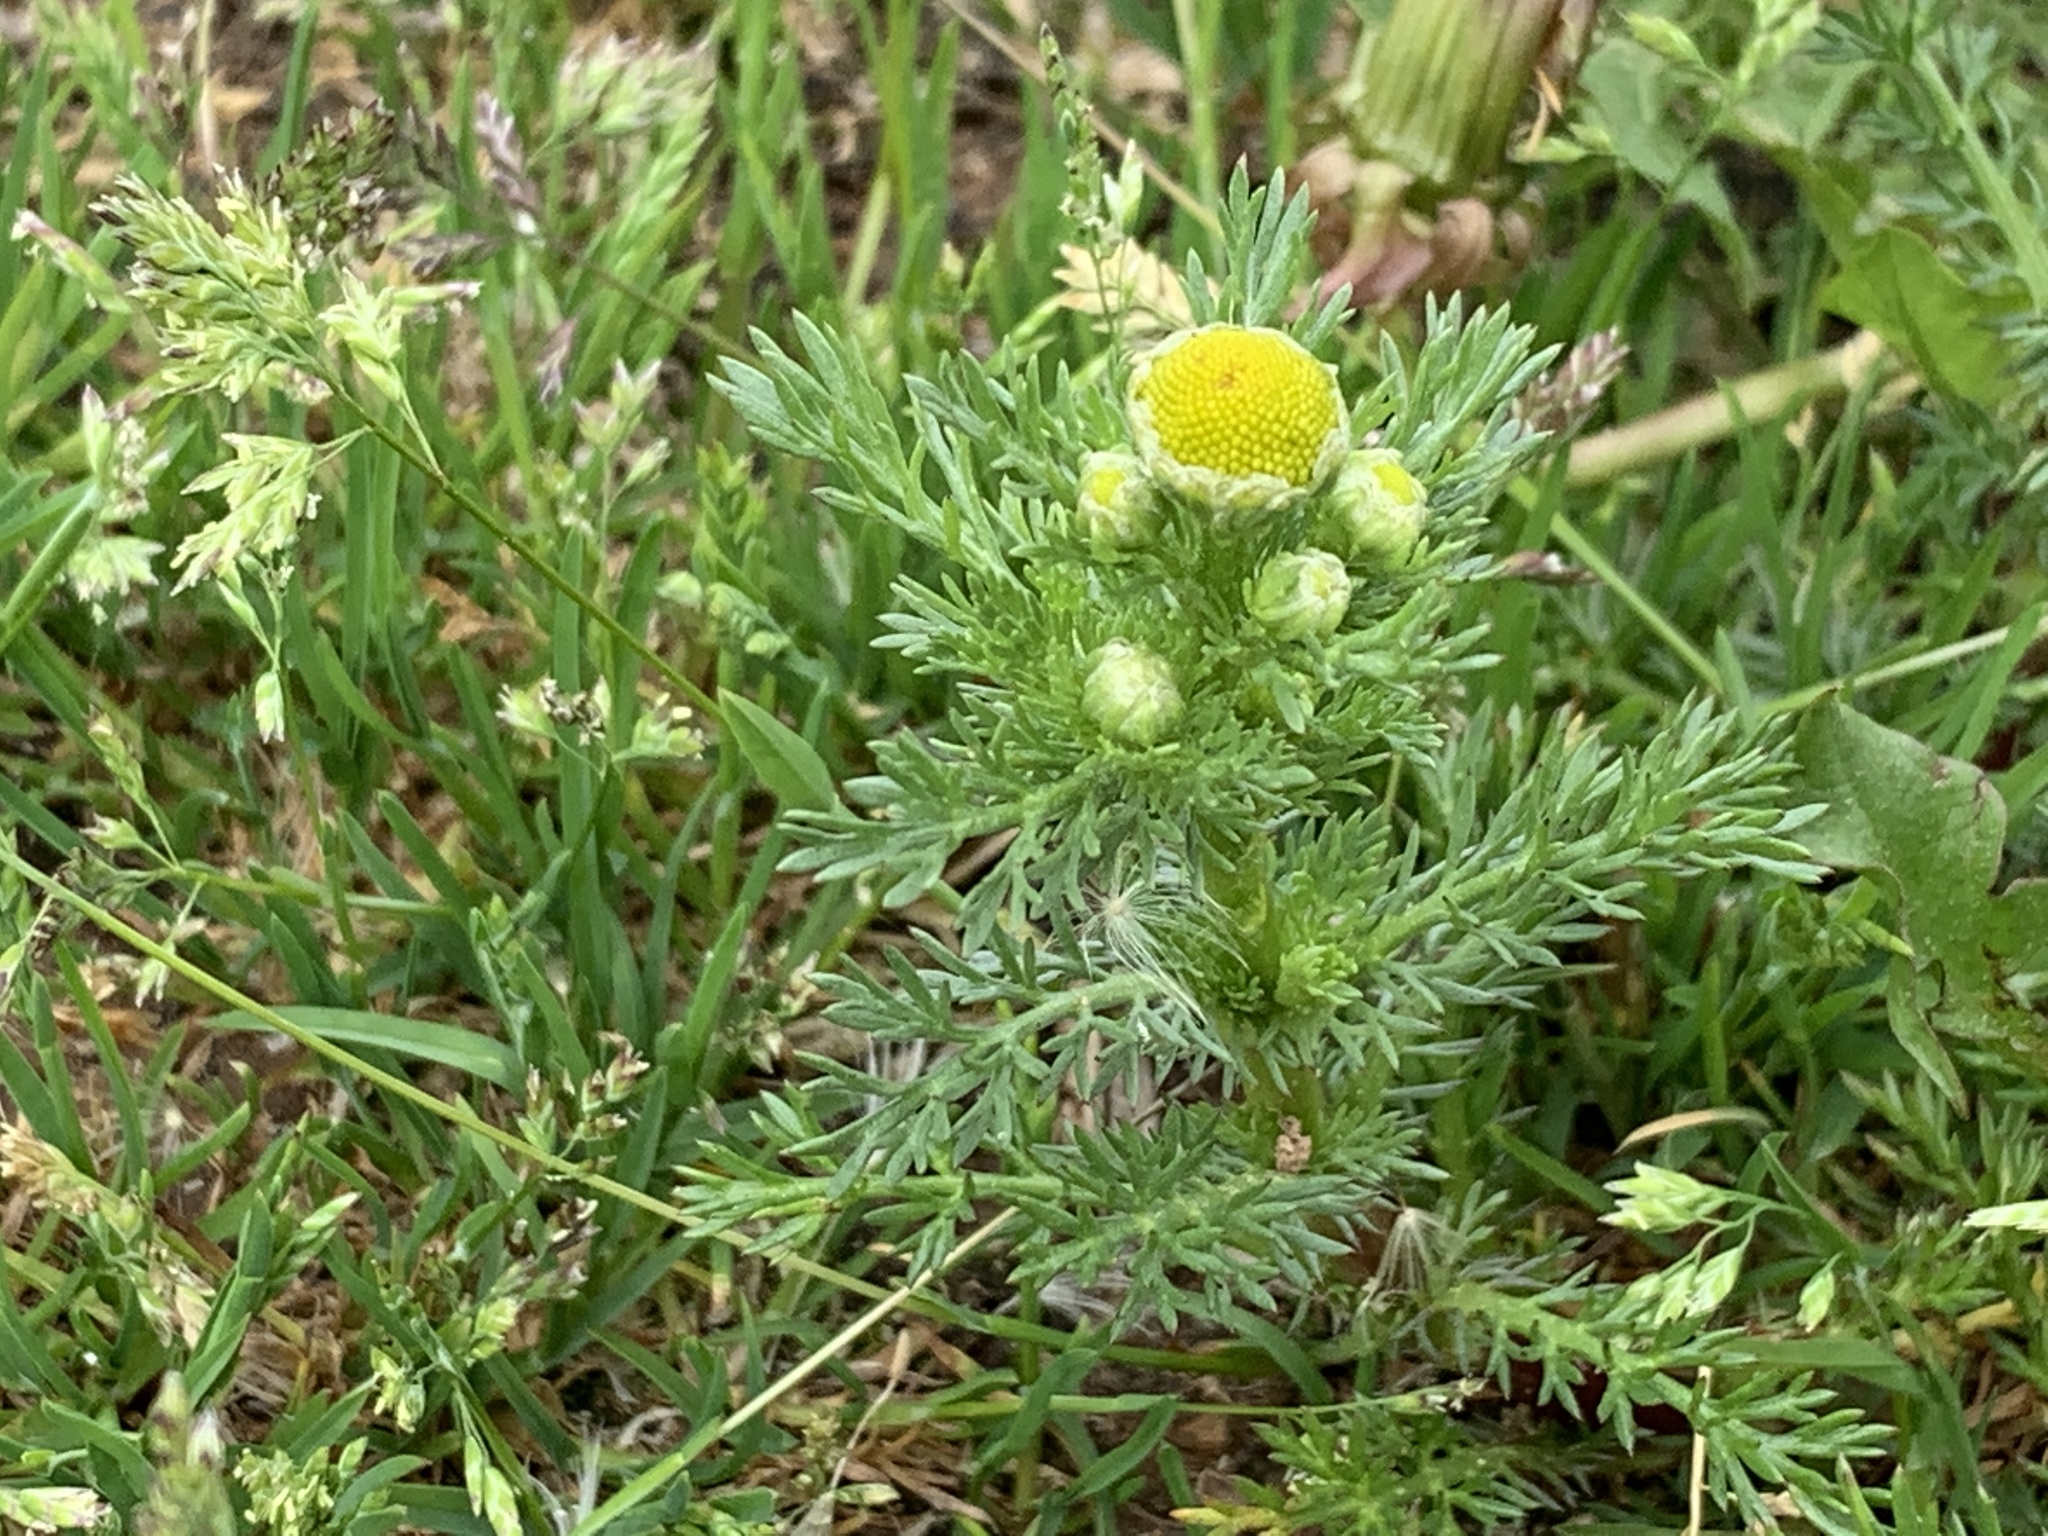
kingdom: Plantae
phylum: Tracheophyta
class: Magnoliopsida
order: Asterales
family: Asteraceae
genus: Matricaria
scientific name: Matricaria discoidea
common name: Disc mayweed
